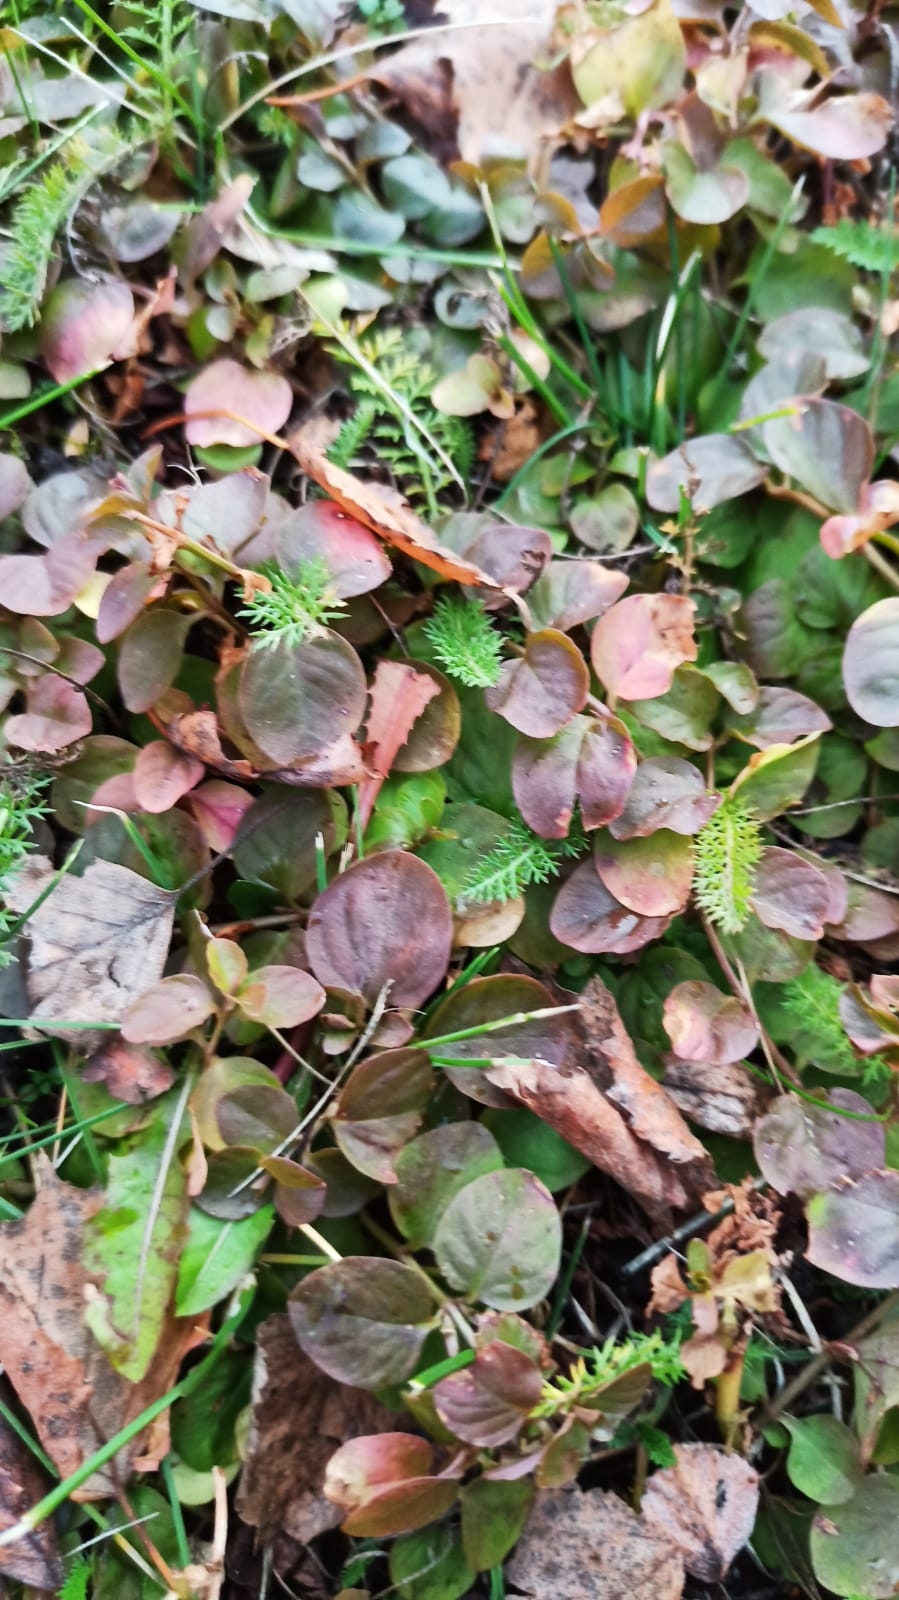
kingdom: Plantae
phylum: Tracheophyta
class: Magnoliopsida
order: Ericales
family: Primulaceae
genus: Lysimachia
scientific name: Lysimachia nummularia
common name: Moneywort
